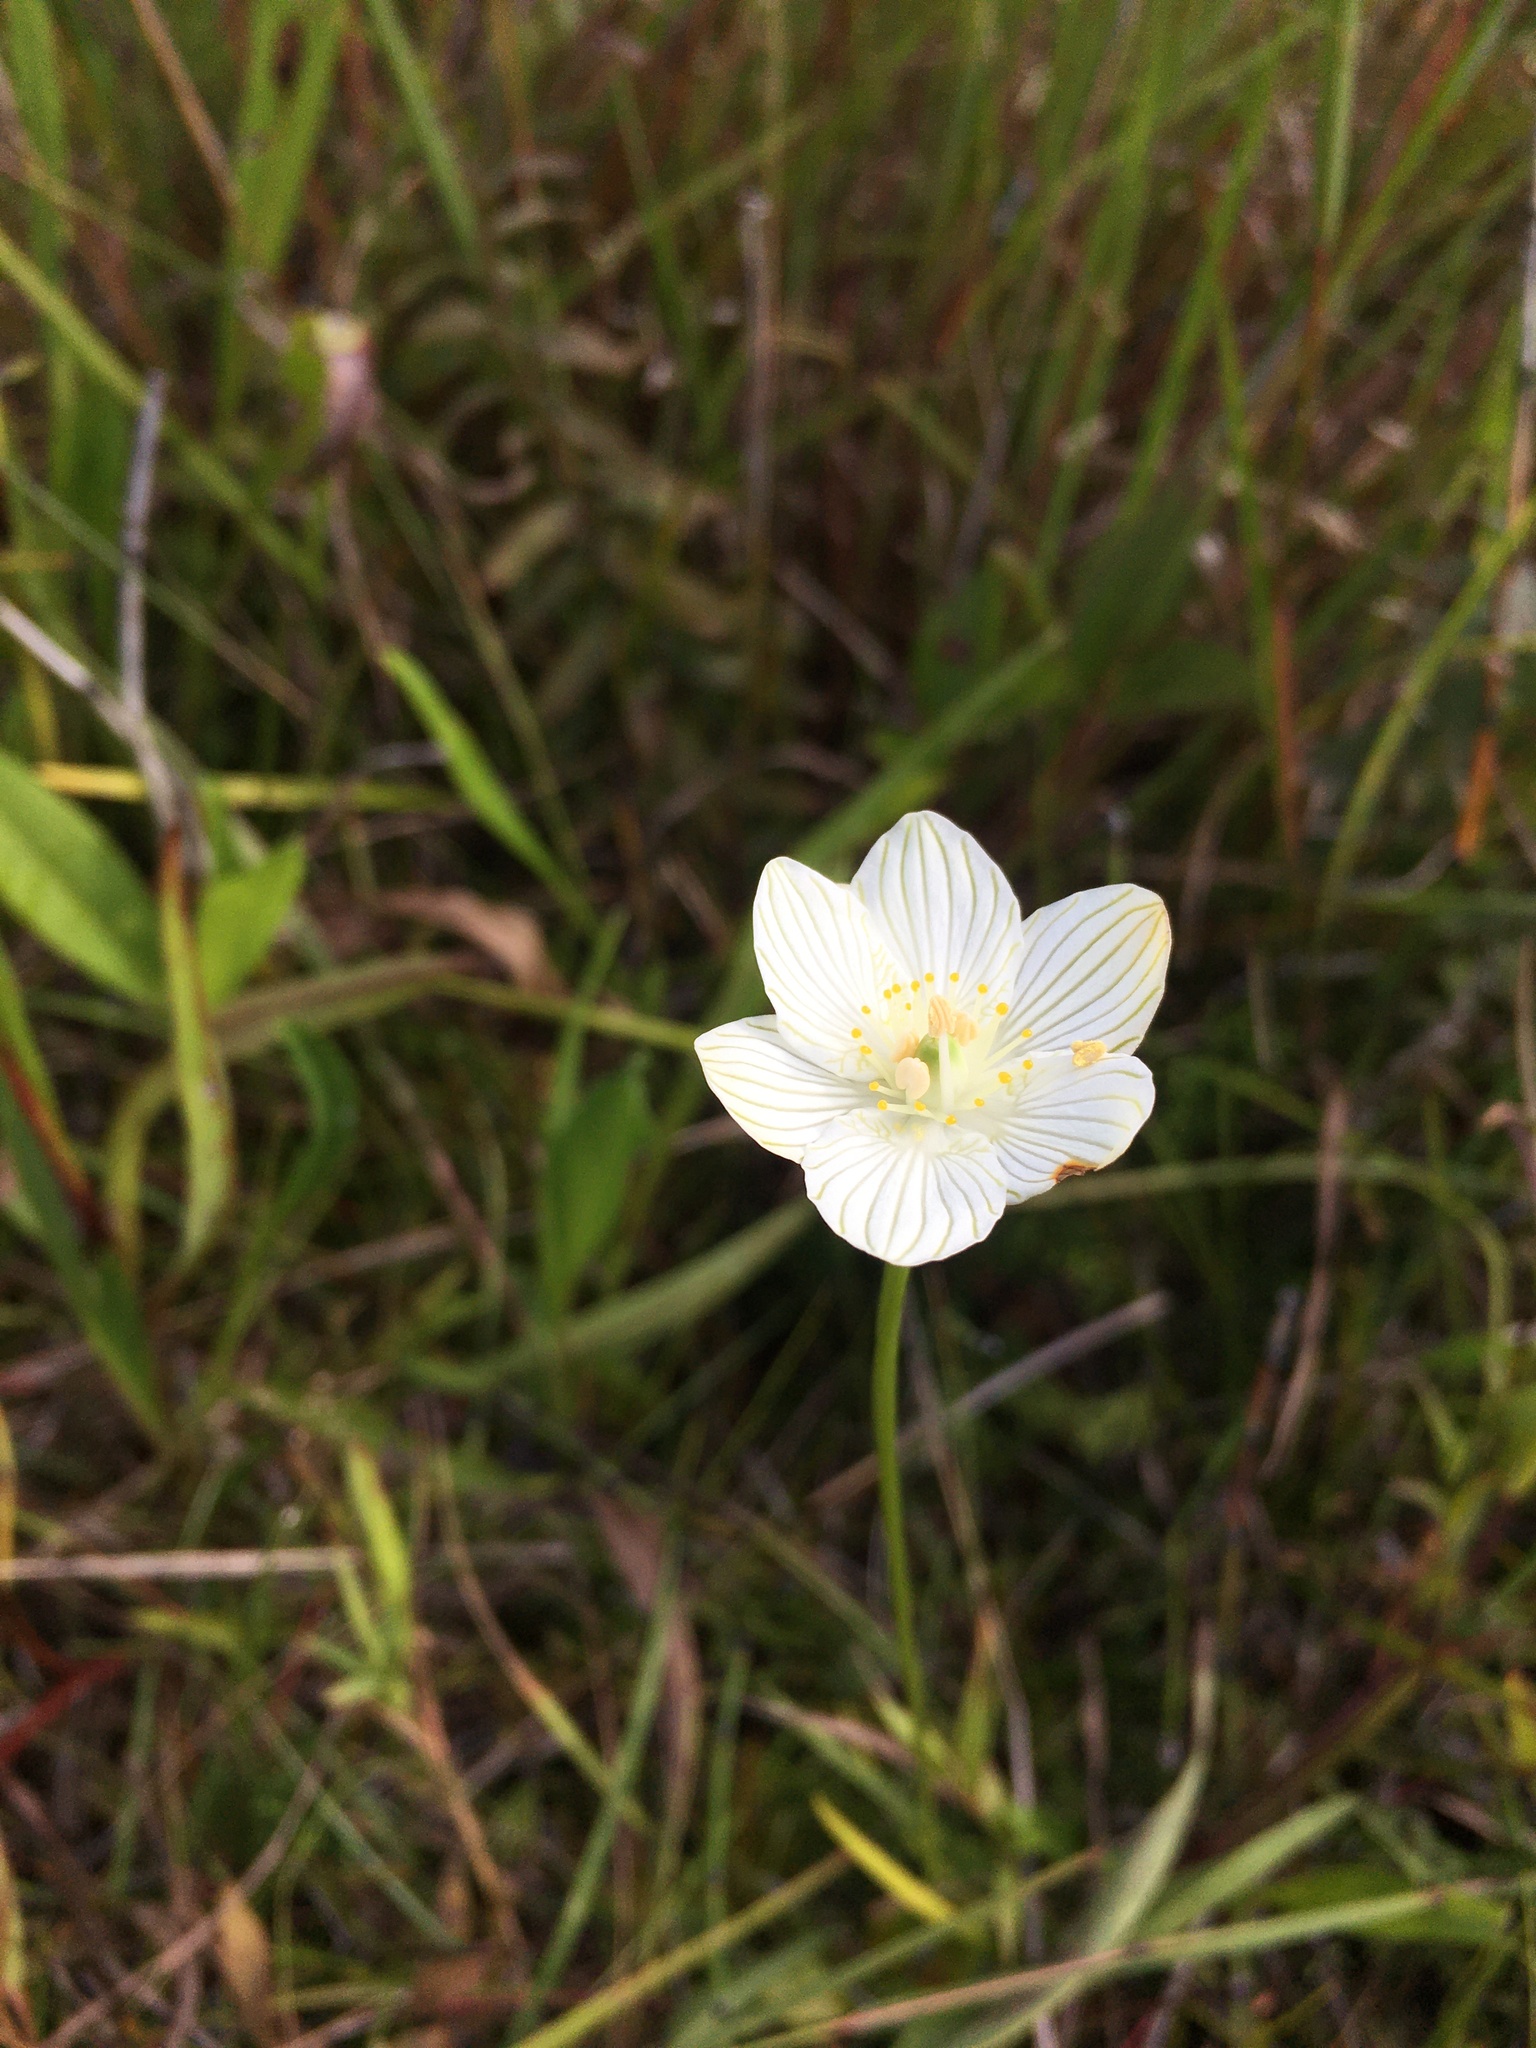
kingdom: Plantae
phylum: Tracheophyta
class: Magnoliopsida
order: Celastrales
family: Parnassiaceae
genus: Parnassia
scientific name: Parnassia glauca
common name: American grass-of-parnassus
